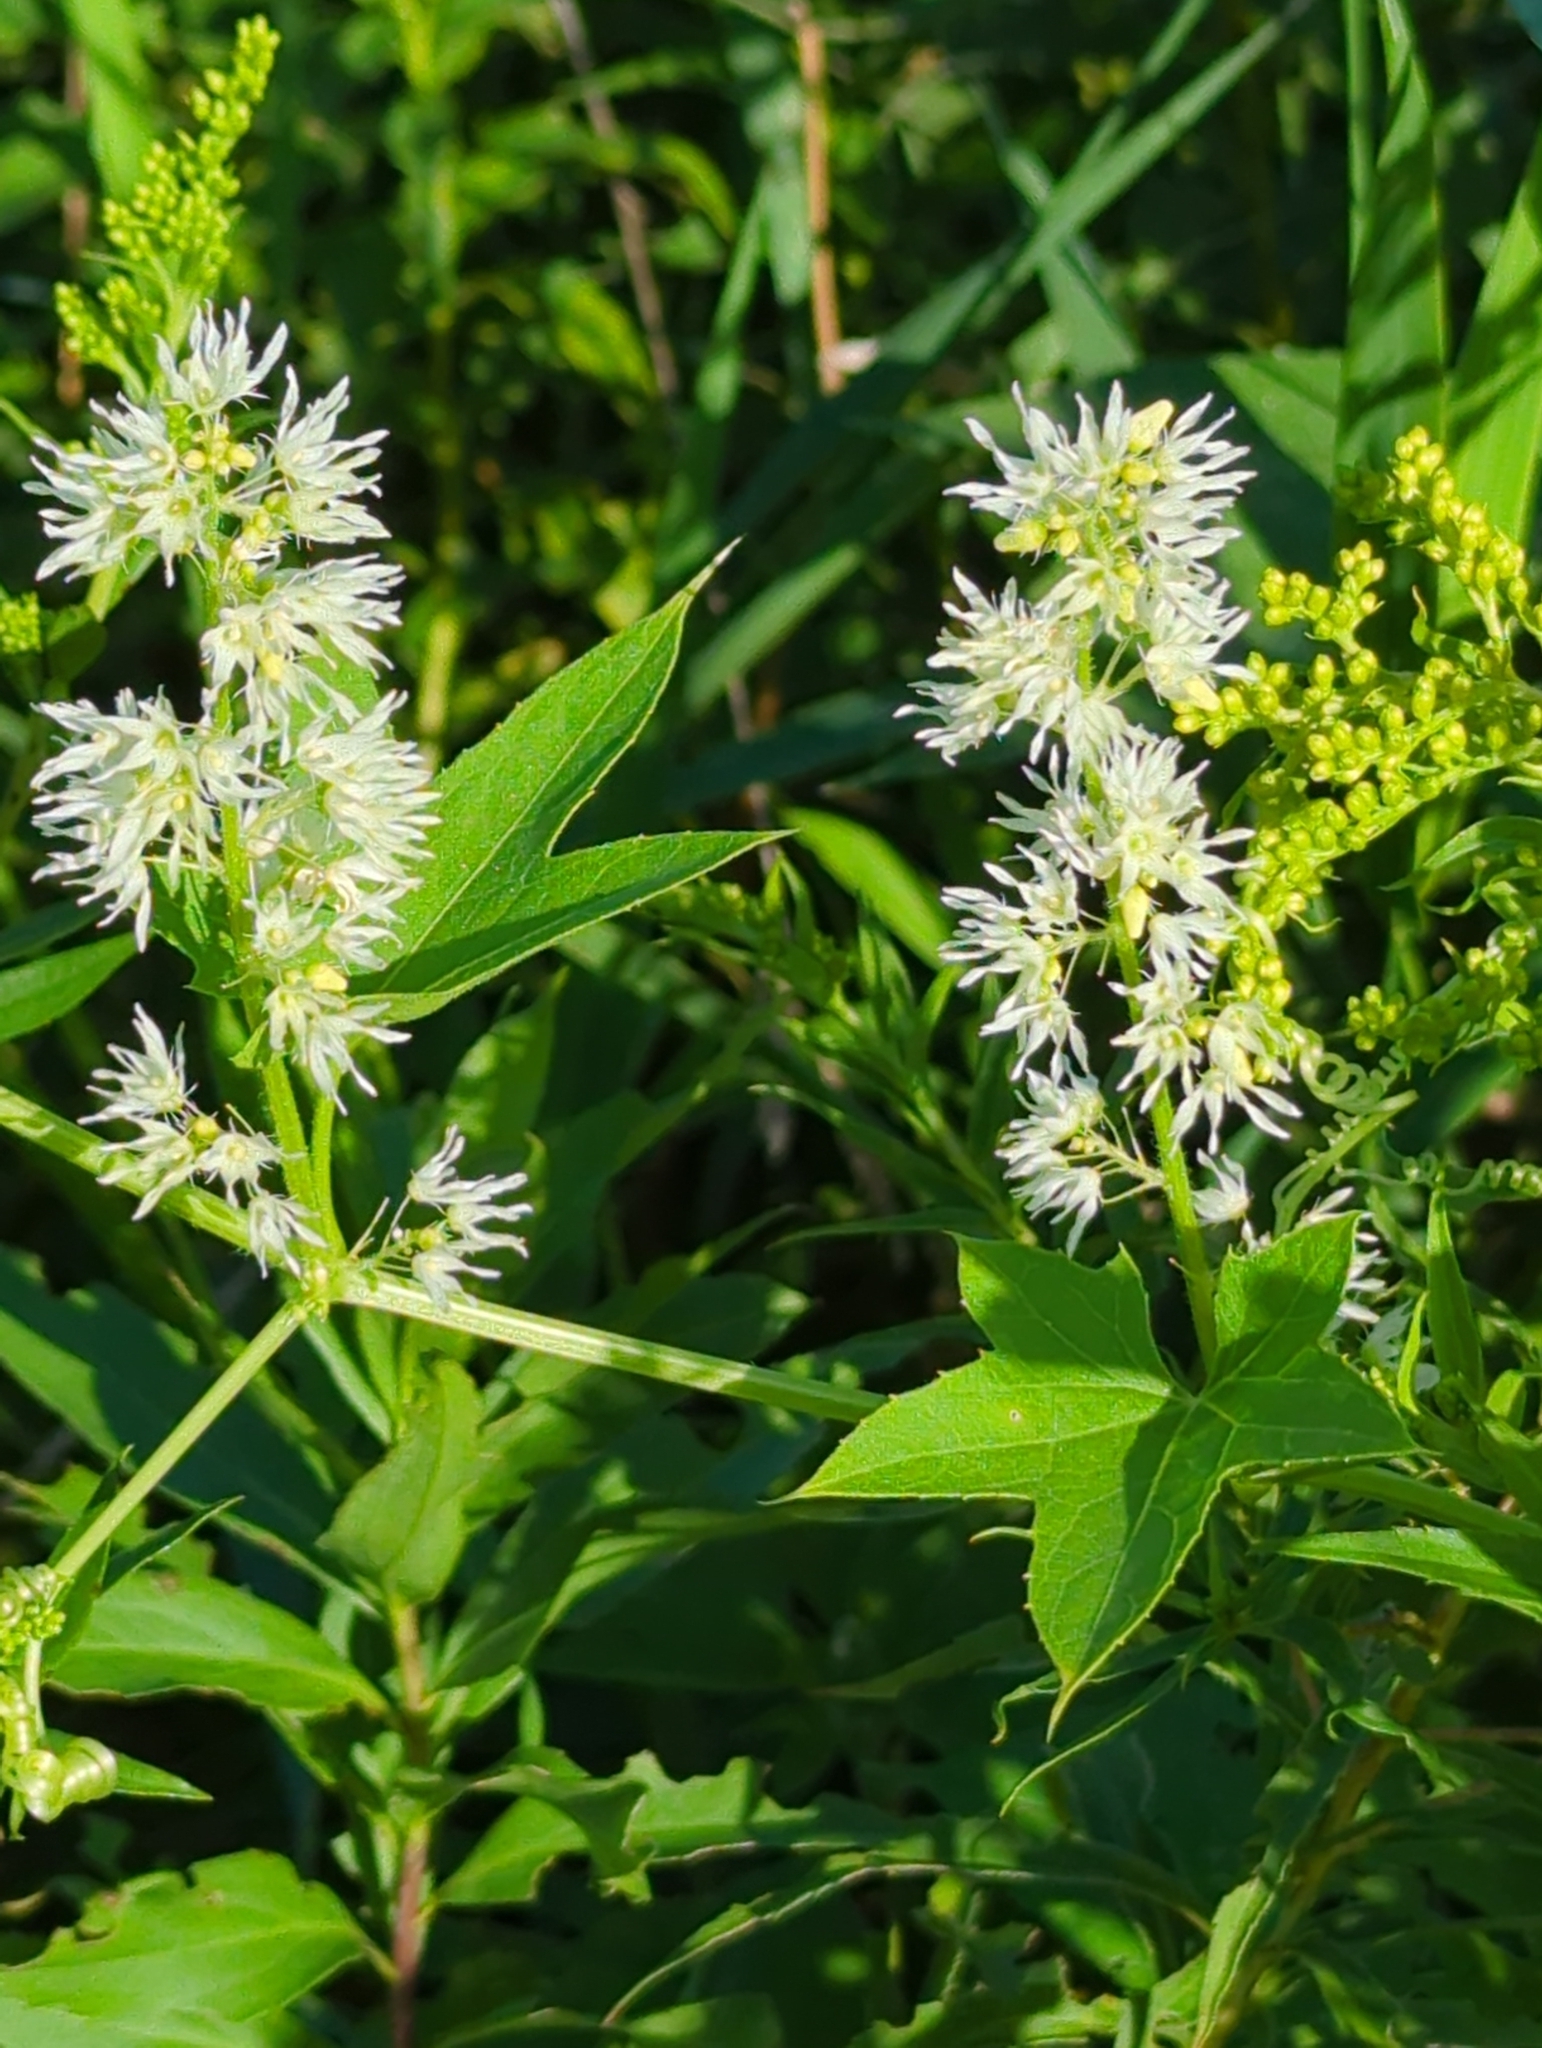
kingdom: Plantae
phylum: Tracheophyta
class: Magnoliopsida
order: Cucurbitales
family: Cucurbitaceae
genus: Echinocystis
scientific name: Echinocystis lobata
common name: Wild cucumber
